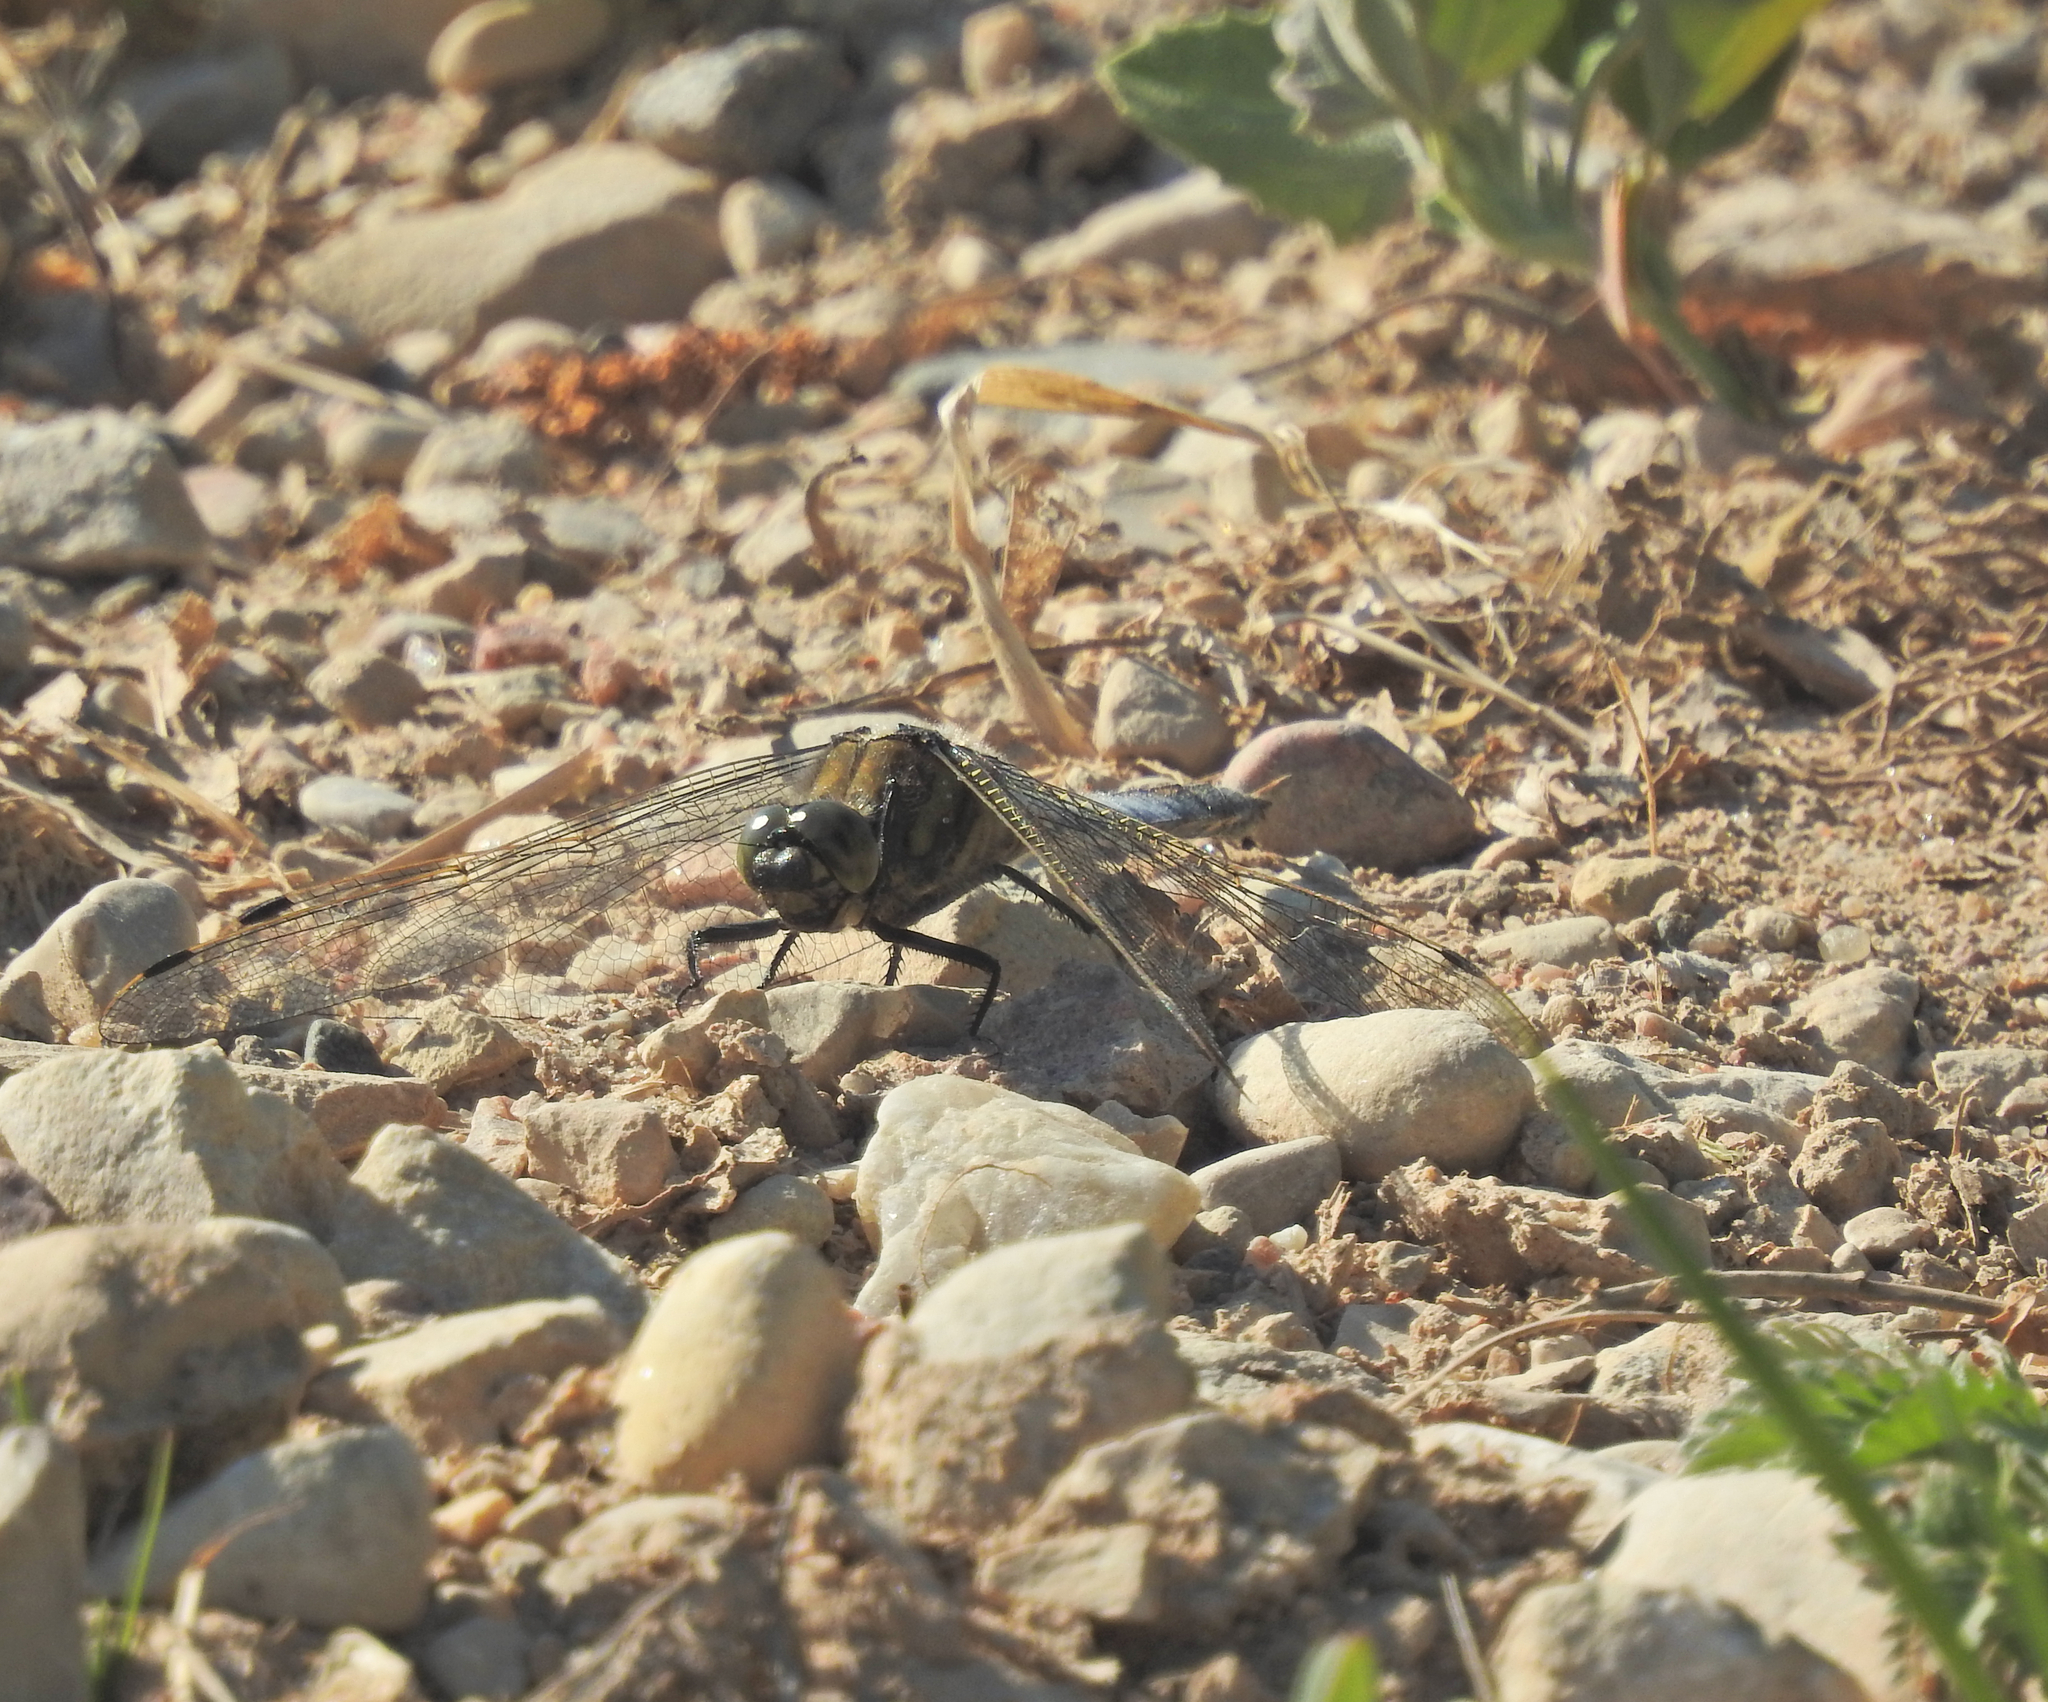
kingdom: Animalia
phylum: Arthropoda
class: Insecta
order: Odonata
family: Libellulidae
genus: Orthetrum
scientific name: Orthetrum cancellatum
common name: Black-tailed skimmer
